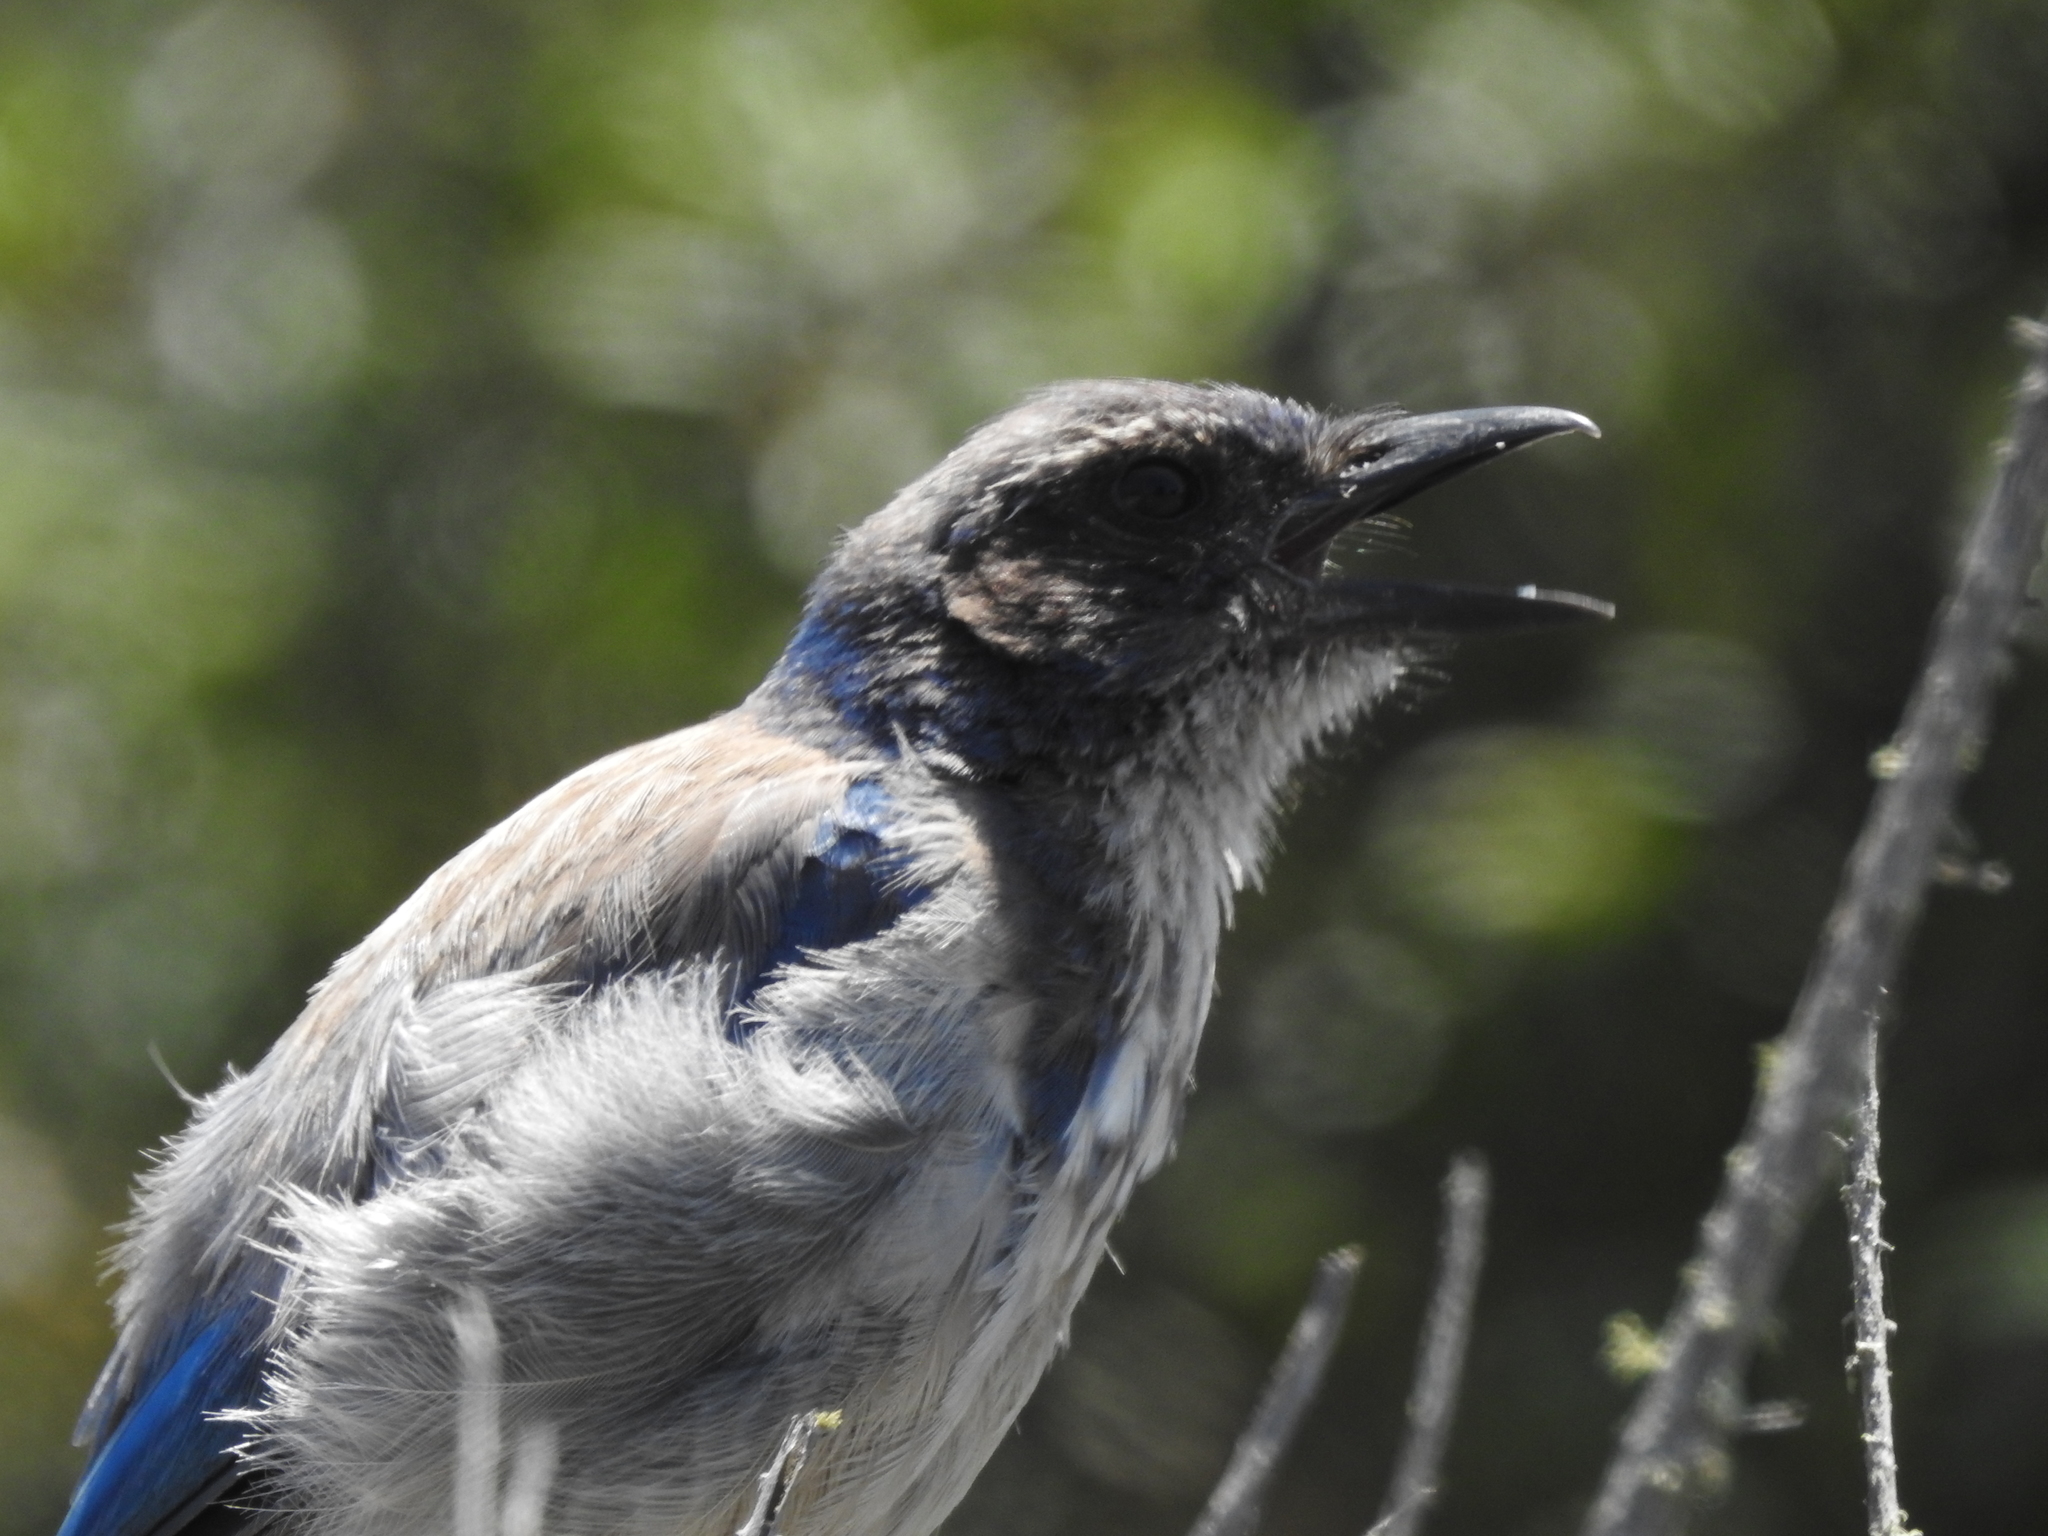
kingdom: Animalia
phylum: Chordata
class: Aves
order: Passeriformes
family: Corvidae
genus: Aphelocoma
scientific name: Aphelocoma californica
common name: California scrub-jay
